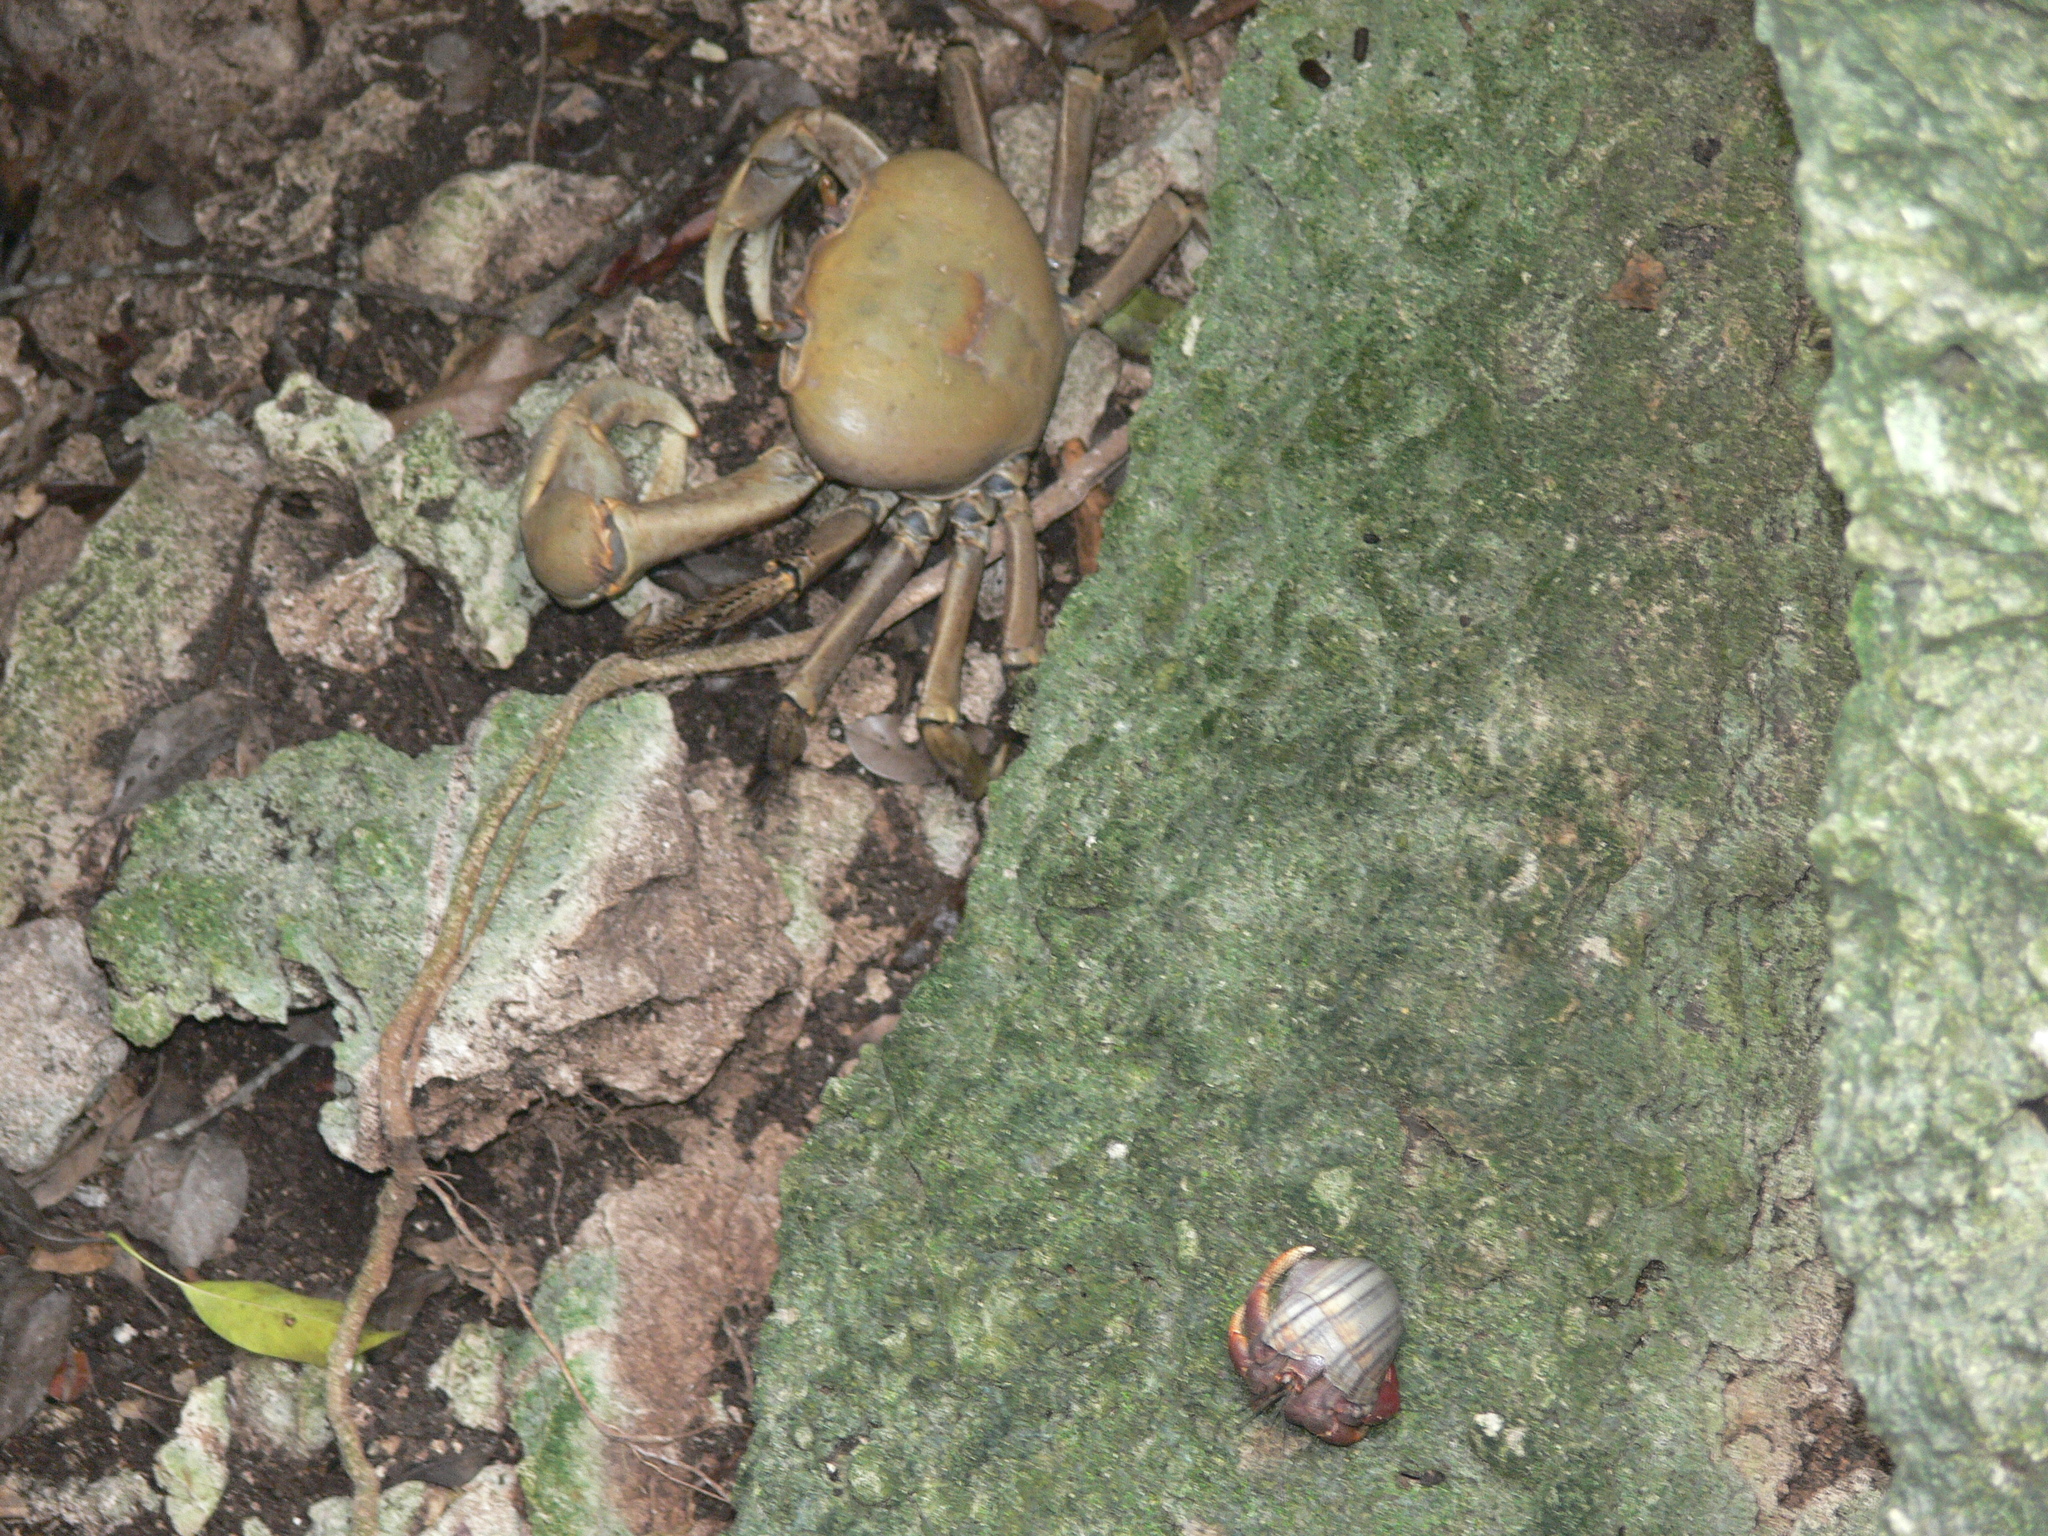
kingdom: Animalia
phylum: Arthropoda
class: Malacostraca
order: Decapoda
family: Gecarcinidae
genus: Cardisoma
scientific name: Cardisoma guanhumi
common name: Great land crab
